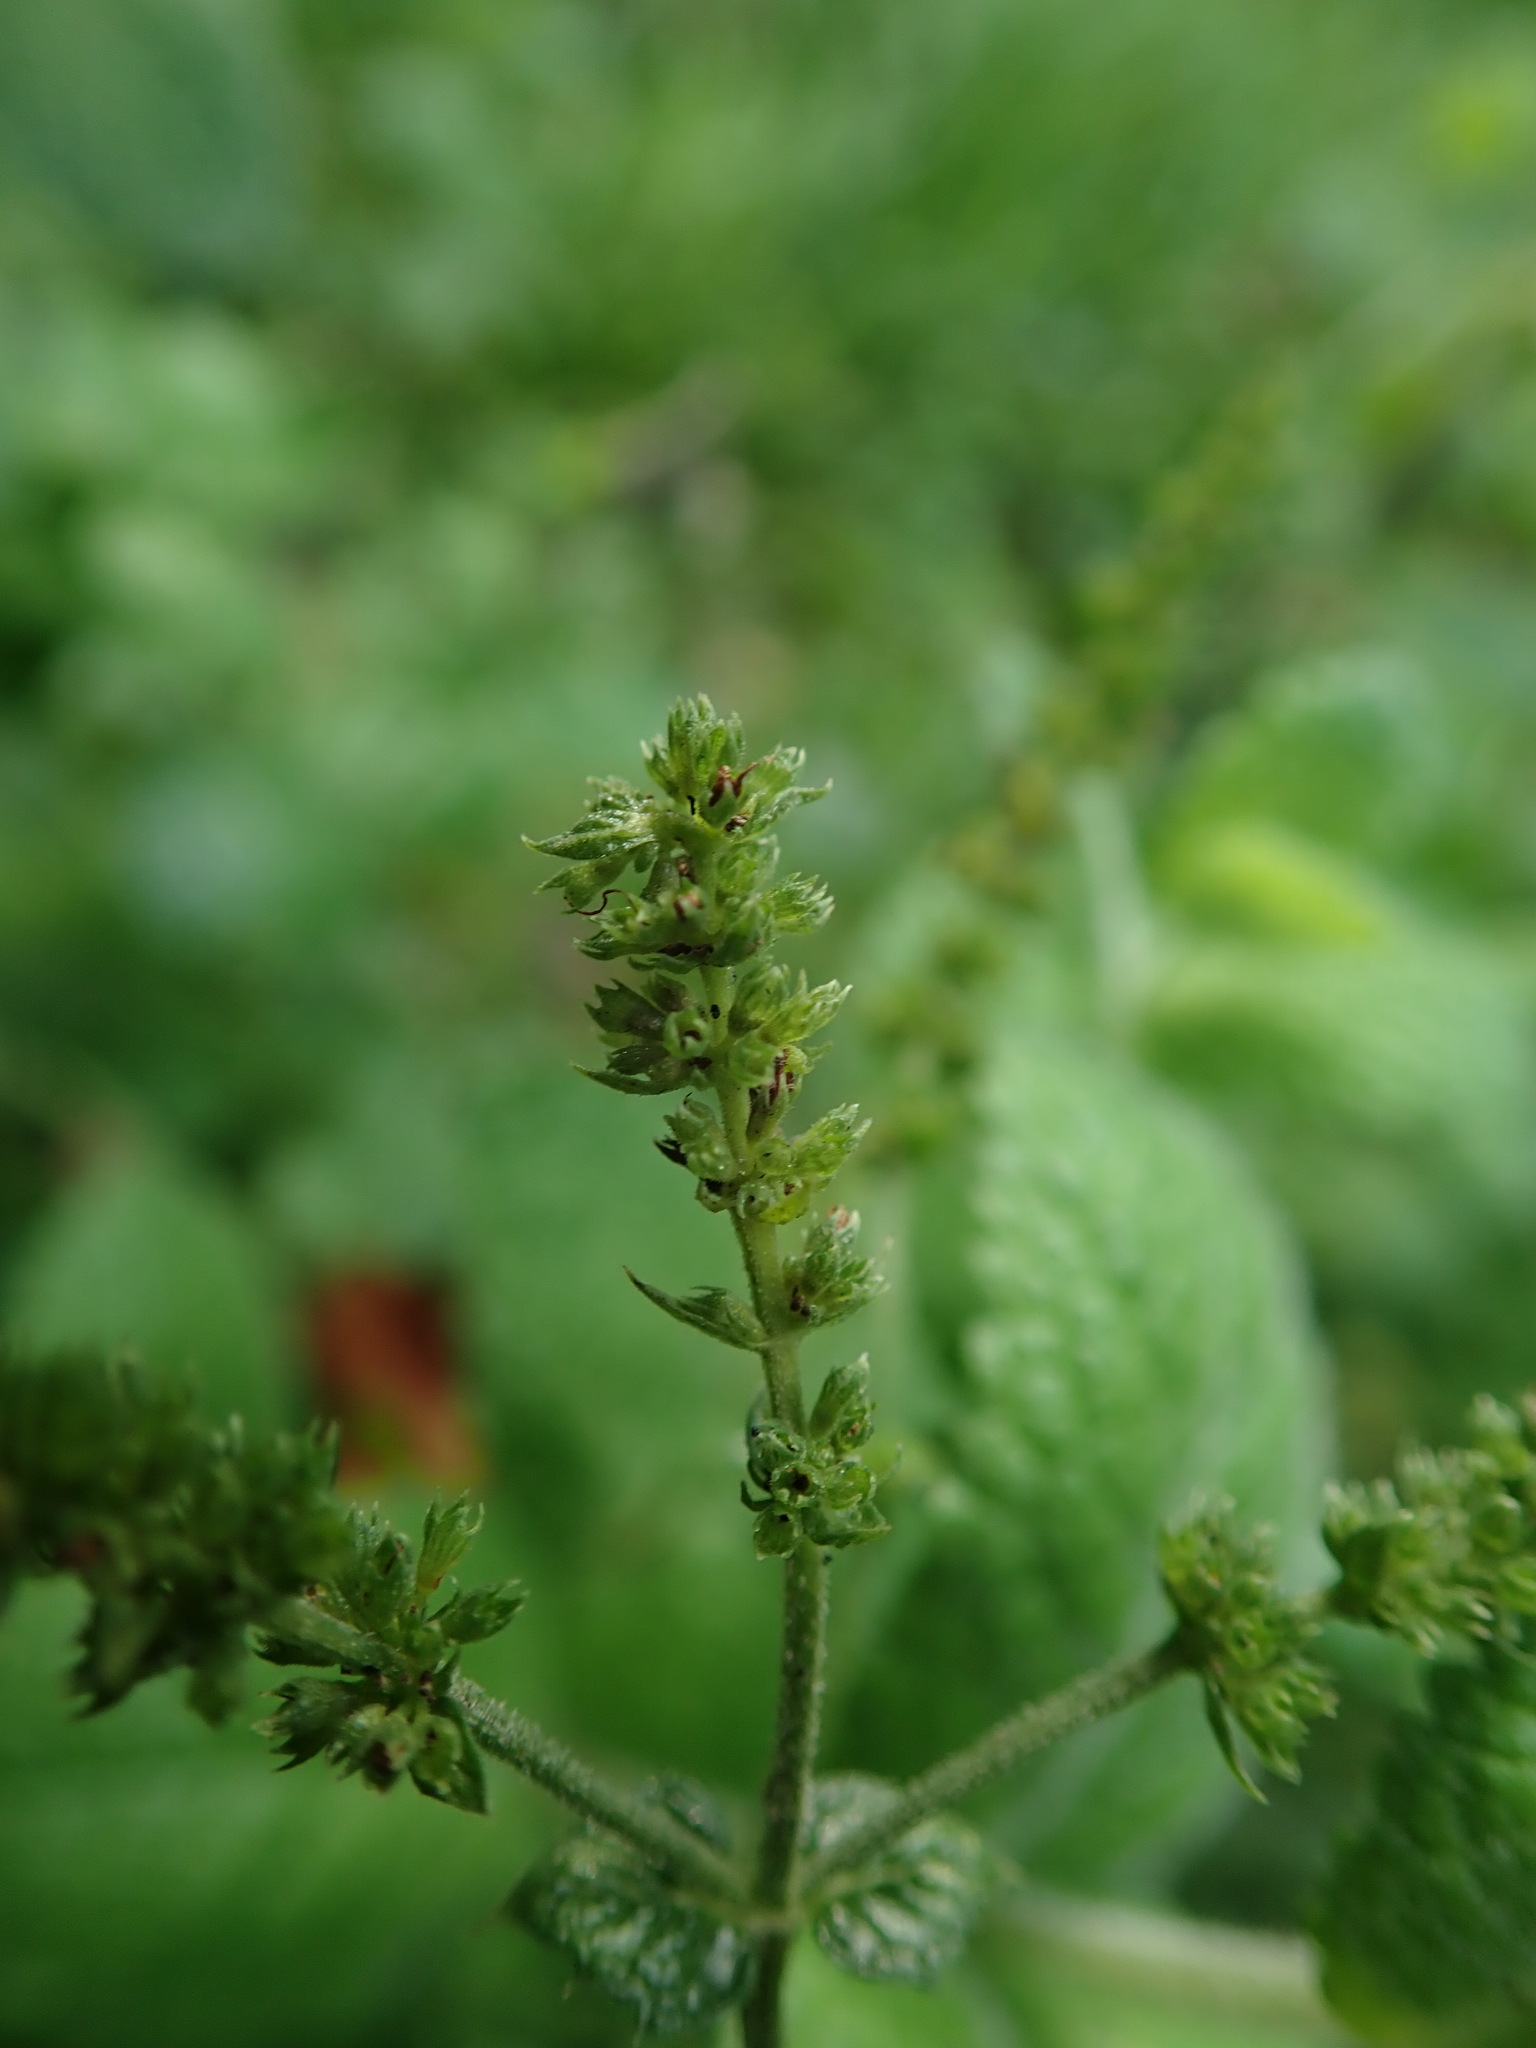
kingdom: Plantae
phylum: Tracheophyta
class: Magnoliopsida
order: Lamiales
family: Lamiaceae
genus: Mentha
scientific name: Mentha suaveolens
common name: Apple mint
